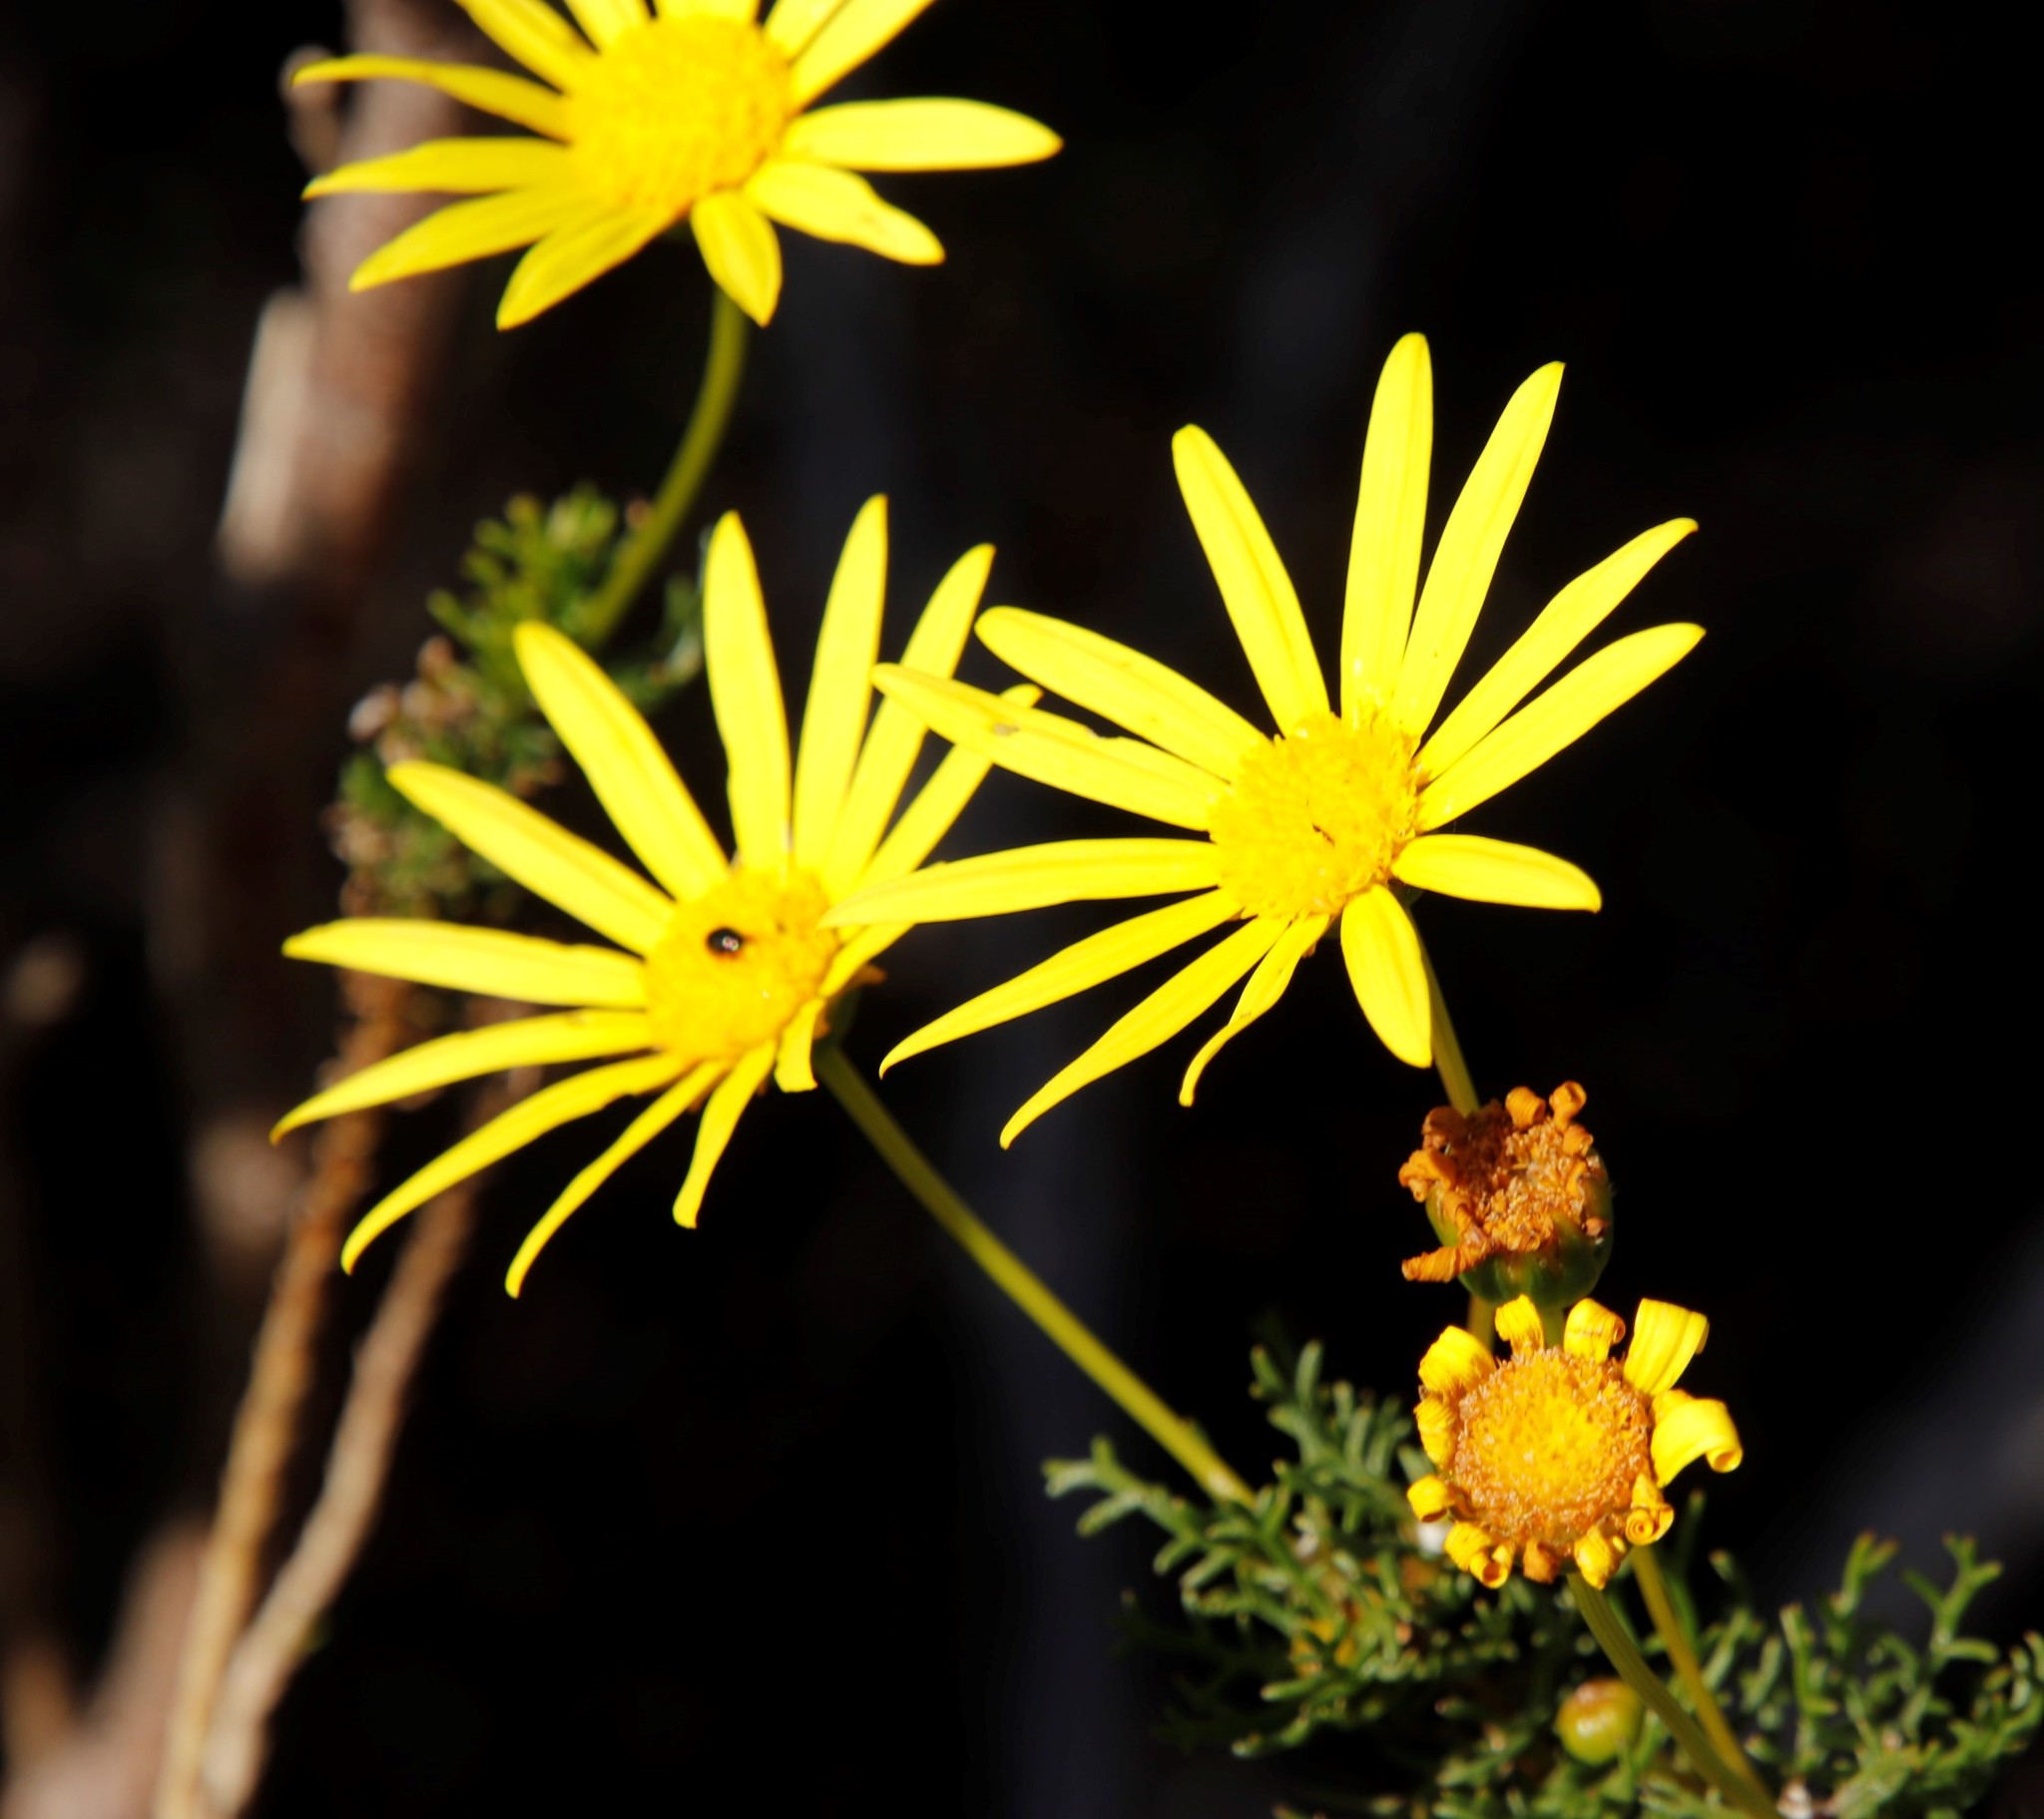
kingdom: Plantae
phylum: Tracheophyta
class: Magnoliopsida
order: Asterales
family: Asteraceae
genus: Euryops
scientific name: Euryops abrotanifolius
